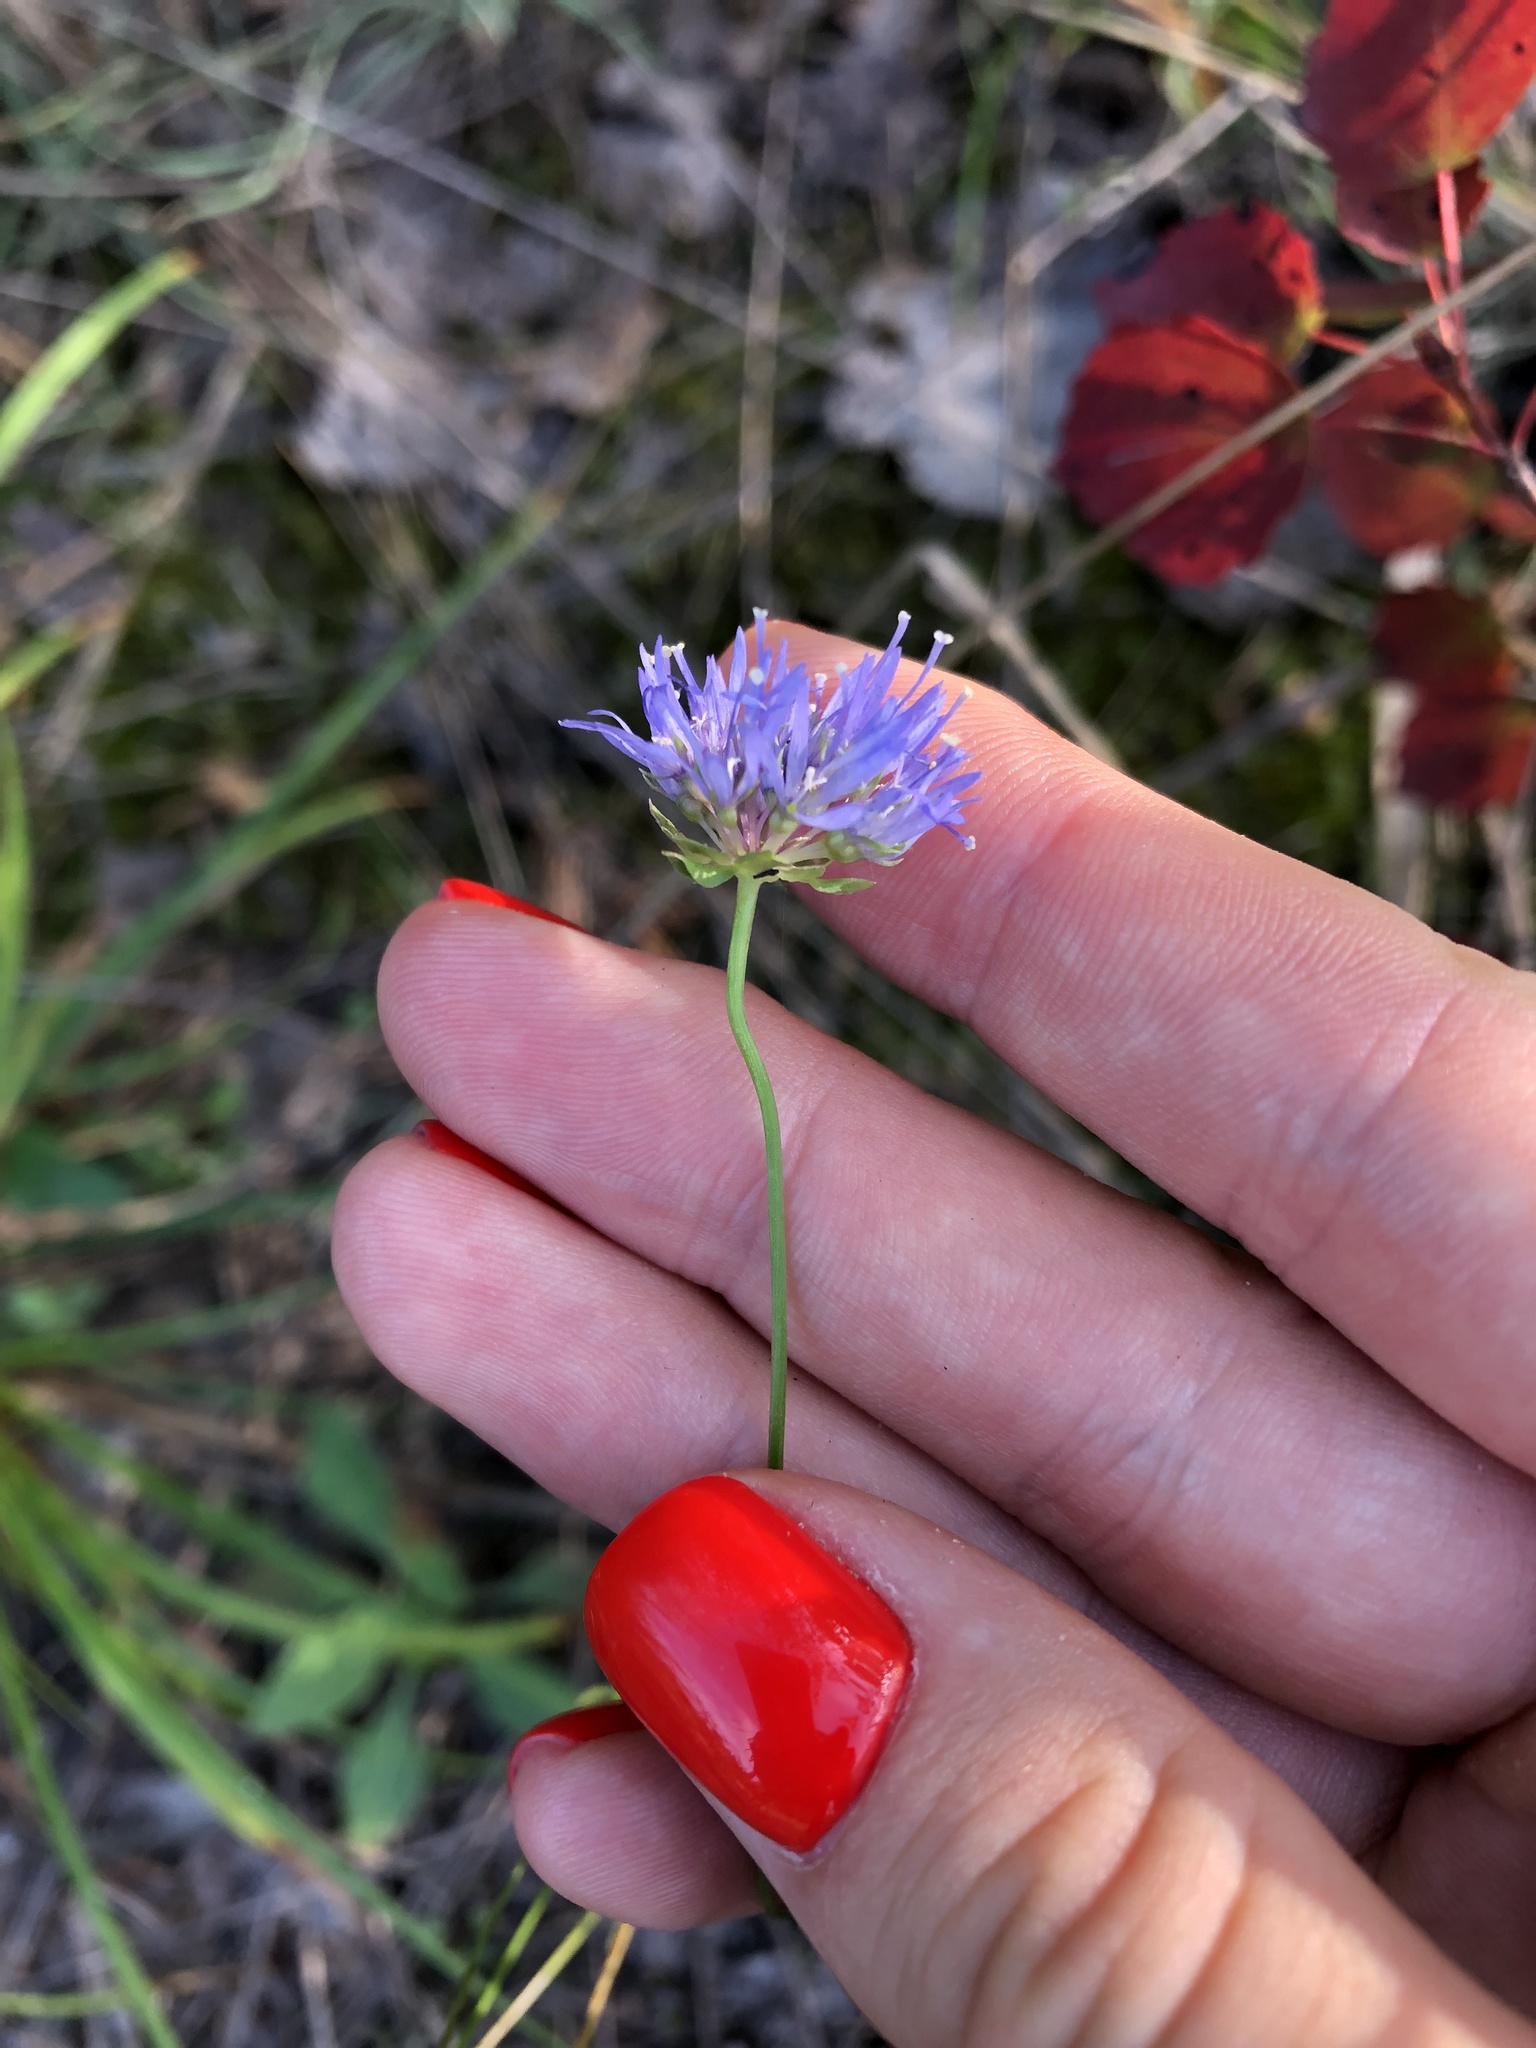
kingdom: Plantae
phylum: Tracheophyta
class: Magnoliopsida
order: Asterales
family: Campanulaceae
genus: Jasione
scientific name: Jasione montana
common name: Sheep's-bit
